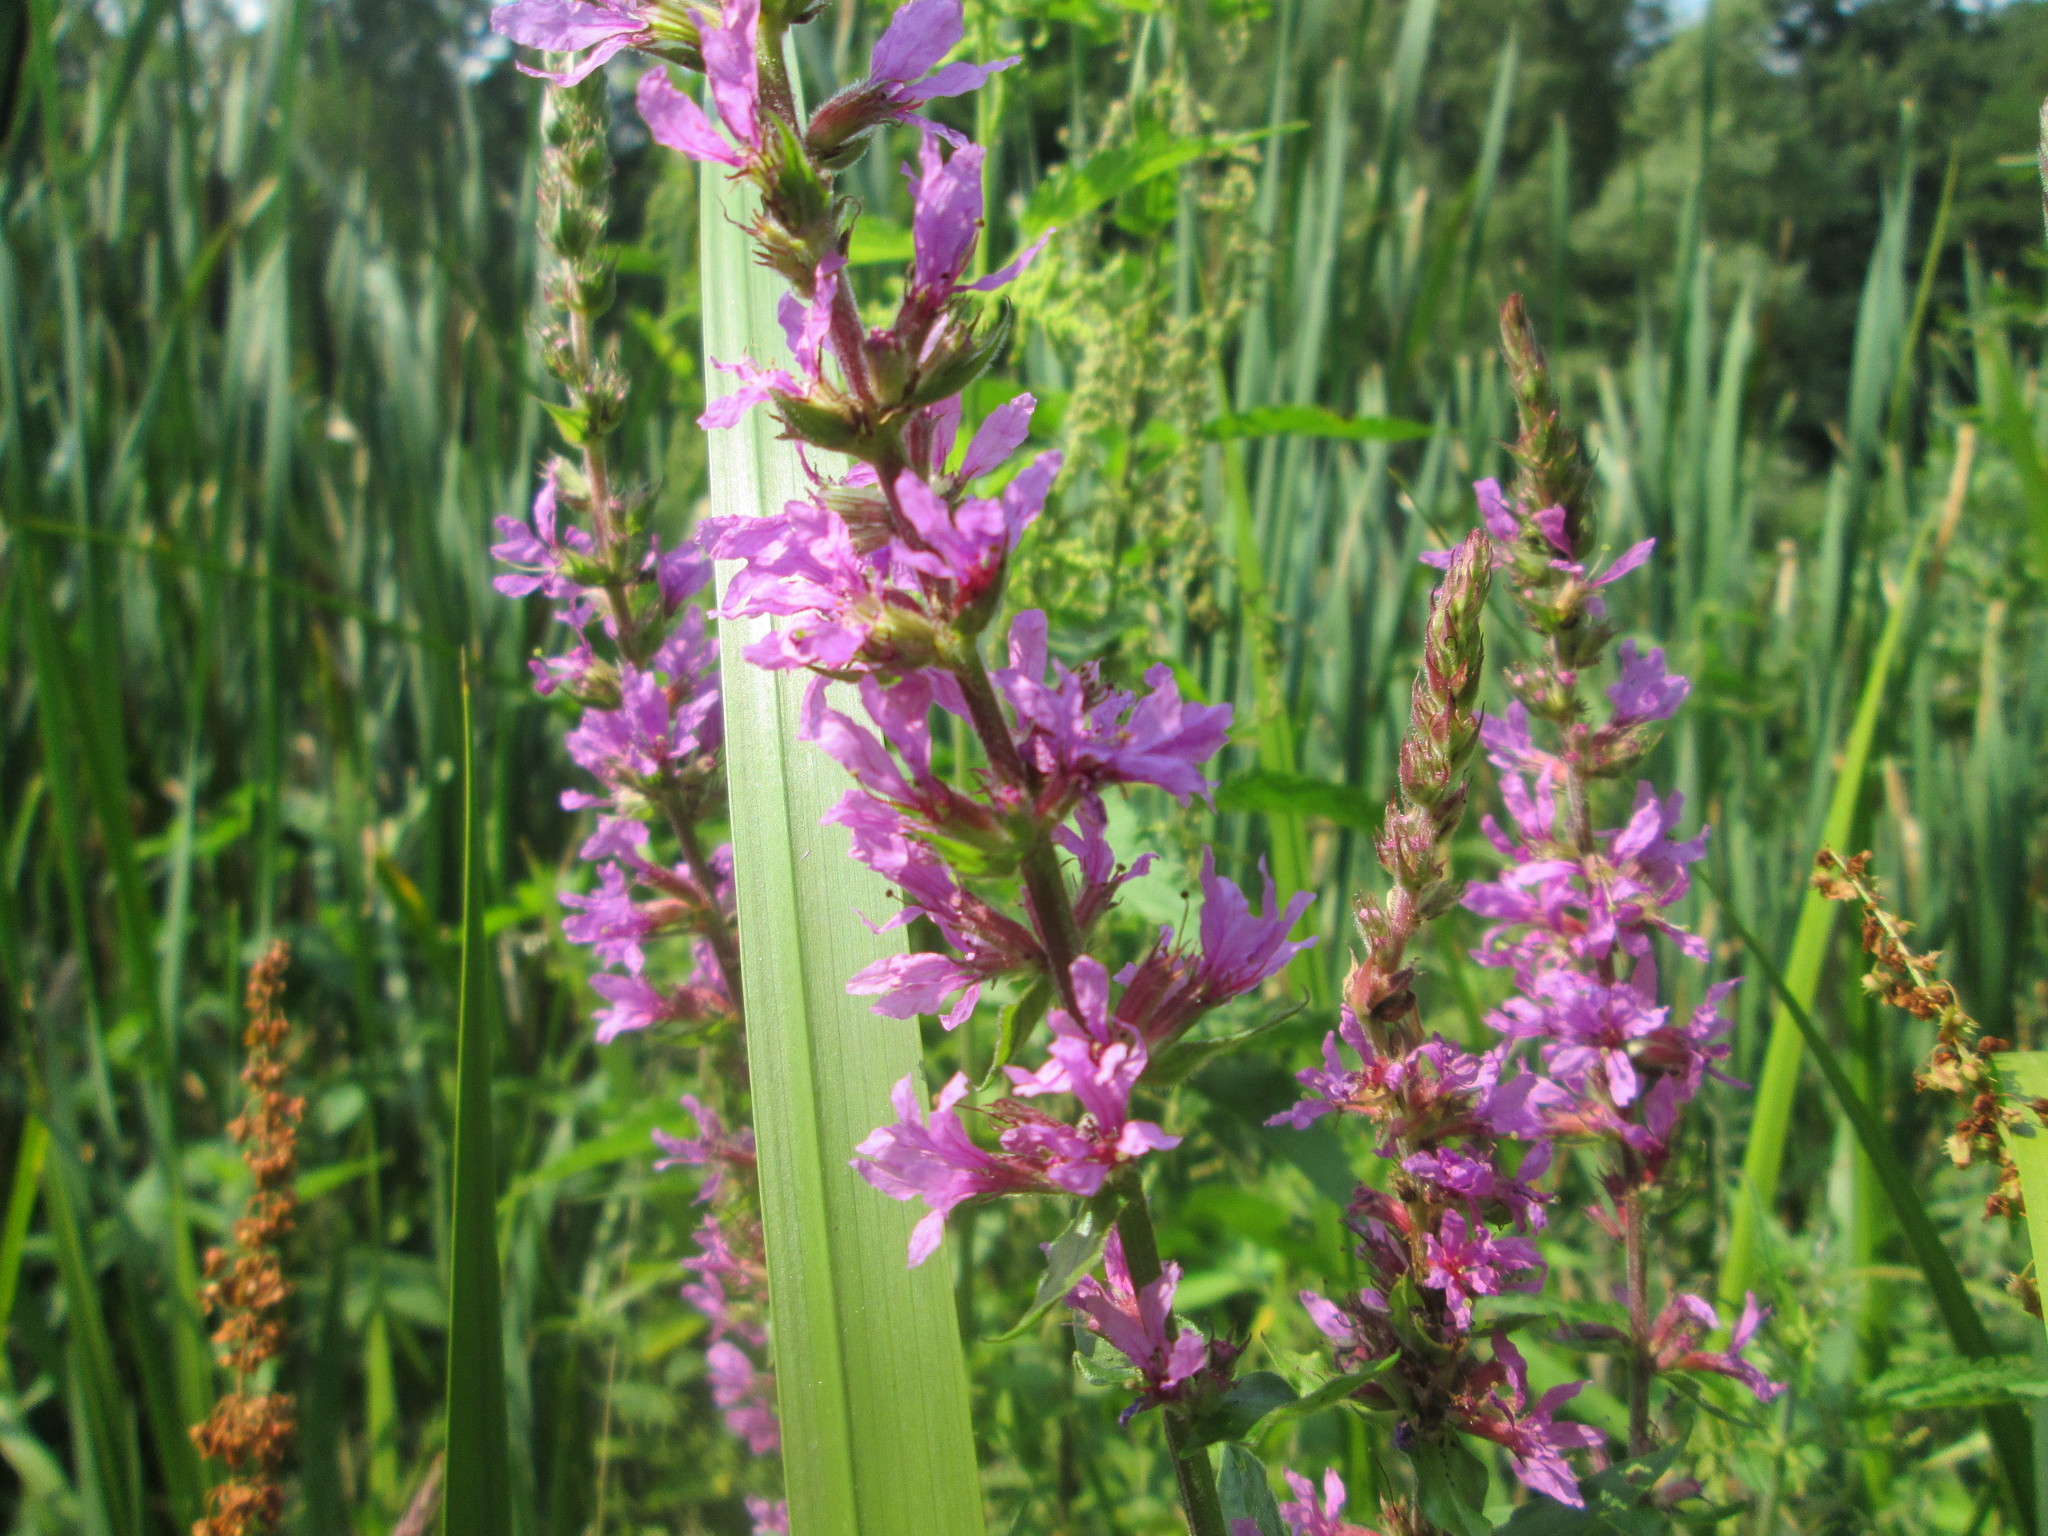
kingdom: Plantae
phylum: Tracheophyta
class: Magnoliopsida
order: Myrtales
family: Lythraceae
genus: Lythrum
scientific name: Lythrum salicaria
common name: Purple loosestrife
